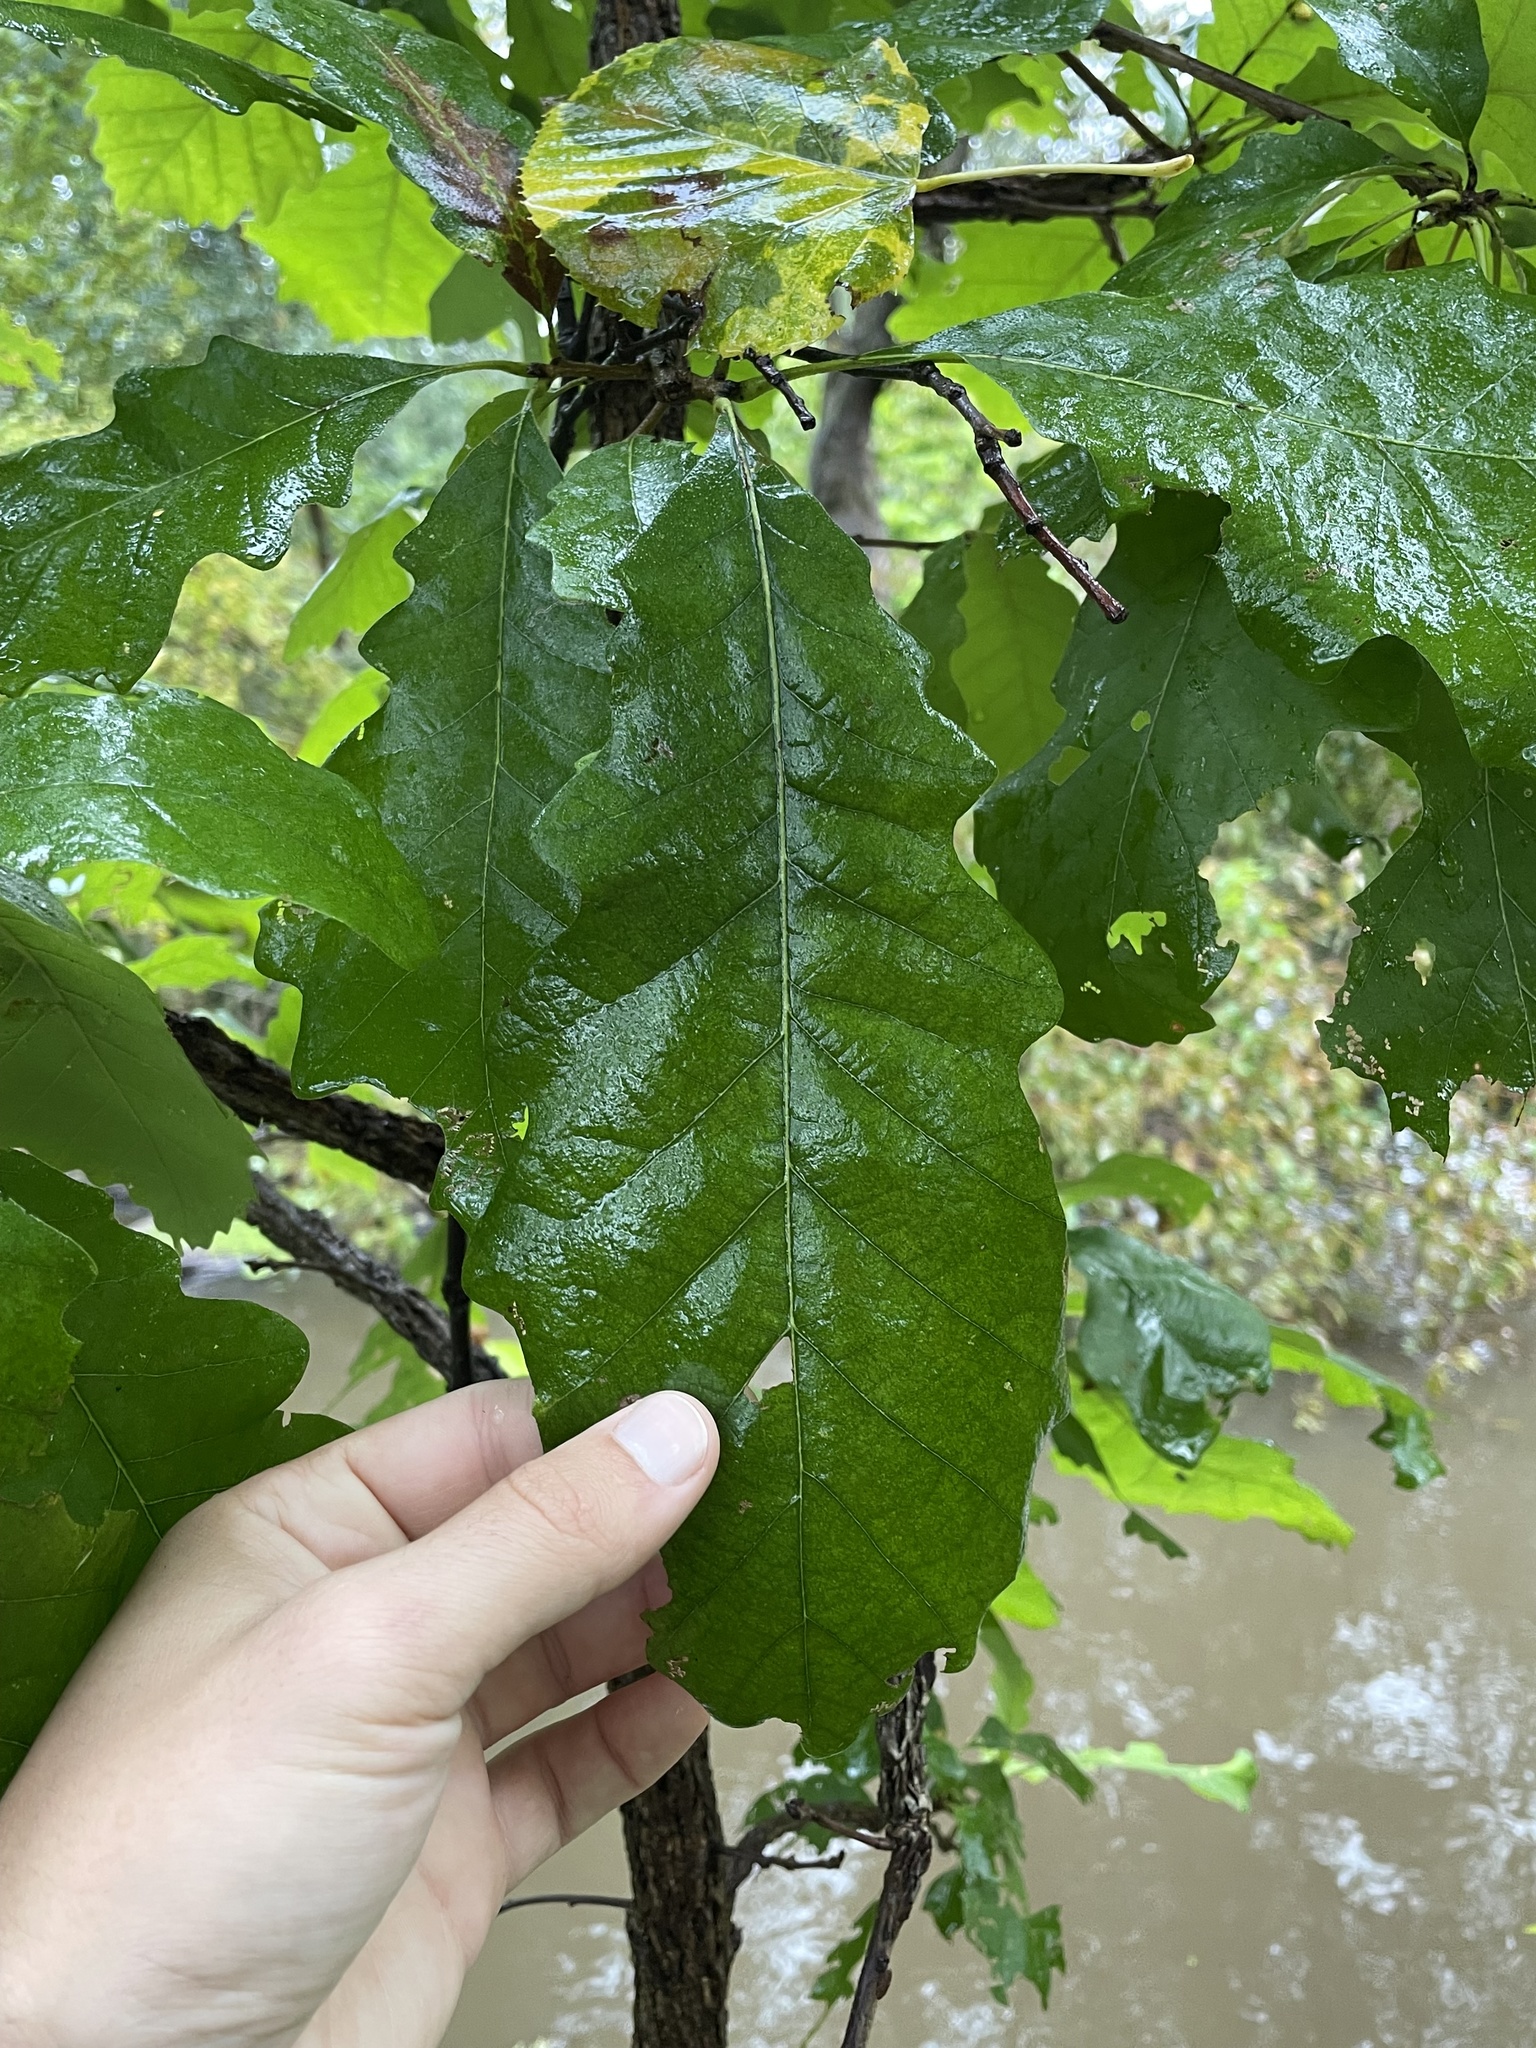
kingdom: Plantae
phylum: Tracheophyta
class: Magnoliopsida
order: Fagales
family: Fagaceae
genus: Quercus
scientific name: Quercus macrocarpa
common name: Bur oak
